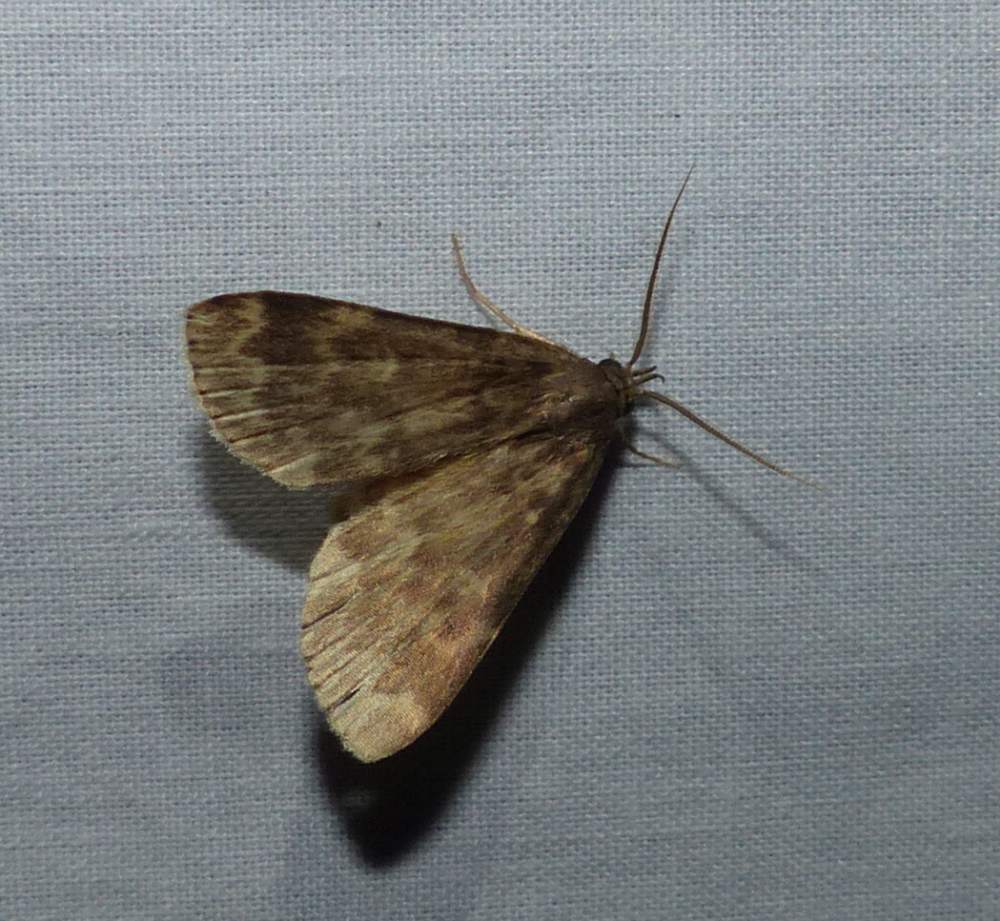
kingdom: Animalia
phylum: Arthropoda
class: Insecta
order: Lepidoptera
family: Erebidae
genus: Idia
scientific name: Idia lubricalis
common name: Twin-striped tabby
